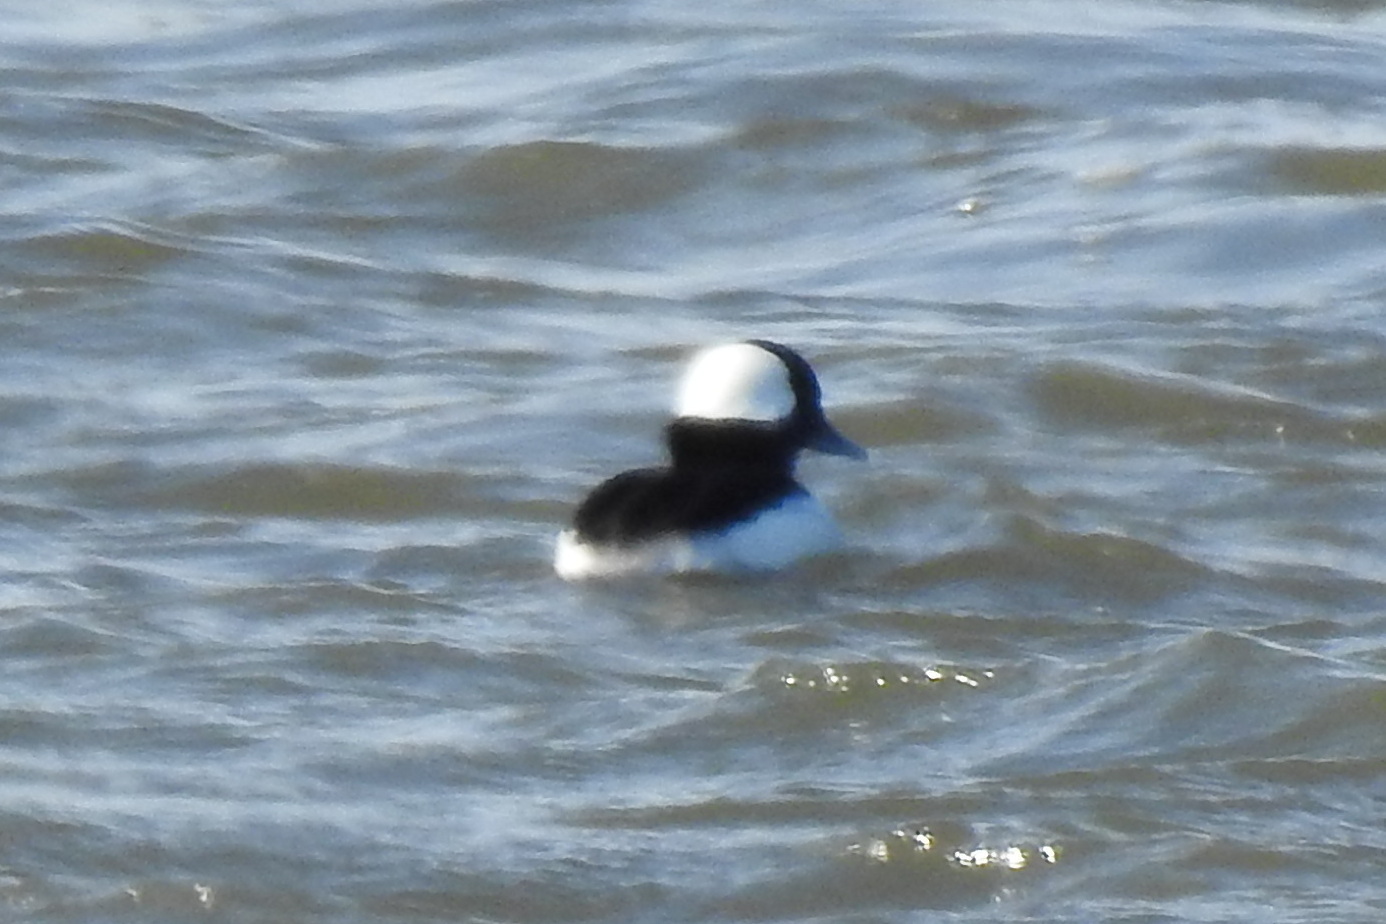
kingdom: Animalia
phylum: Chordata
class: Aves
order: Anseriformes
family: Anatidae
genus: Bucephala
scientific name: Bucephala albeola
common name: Bufflehead
